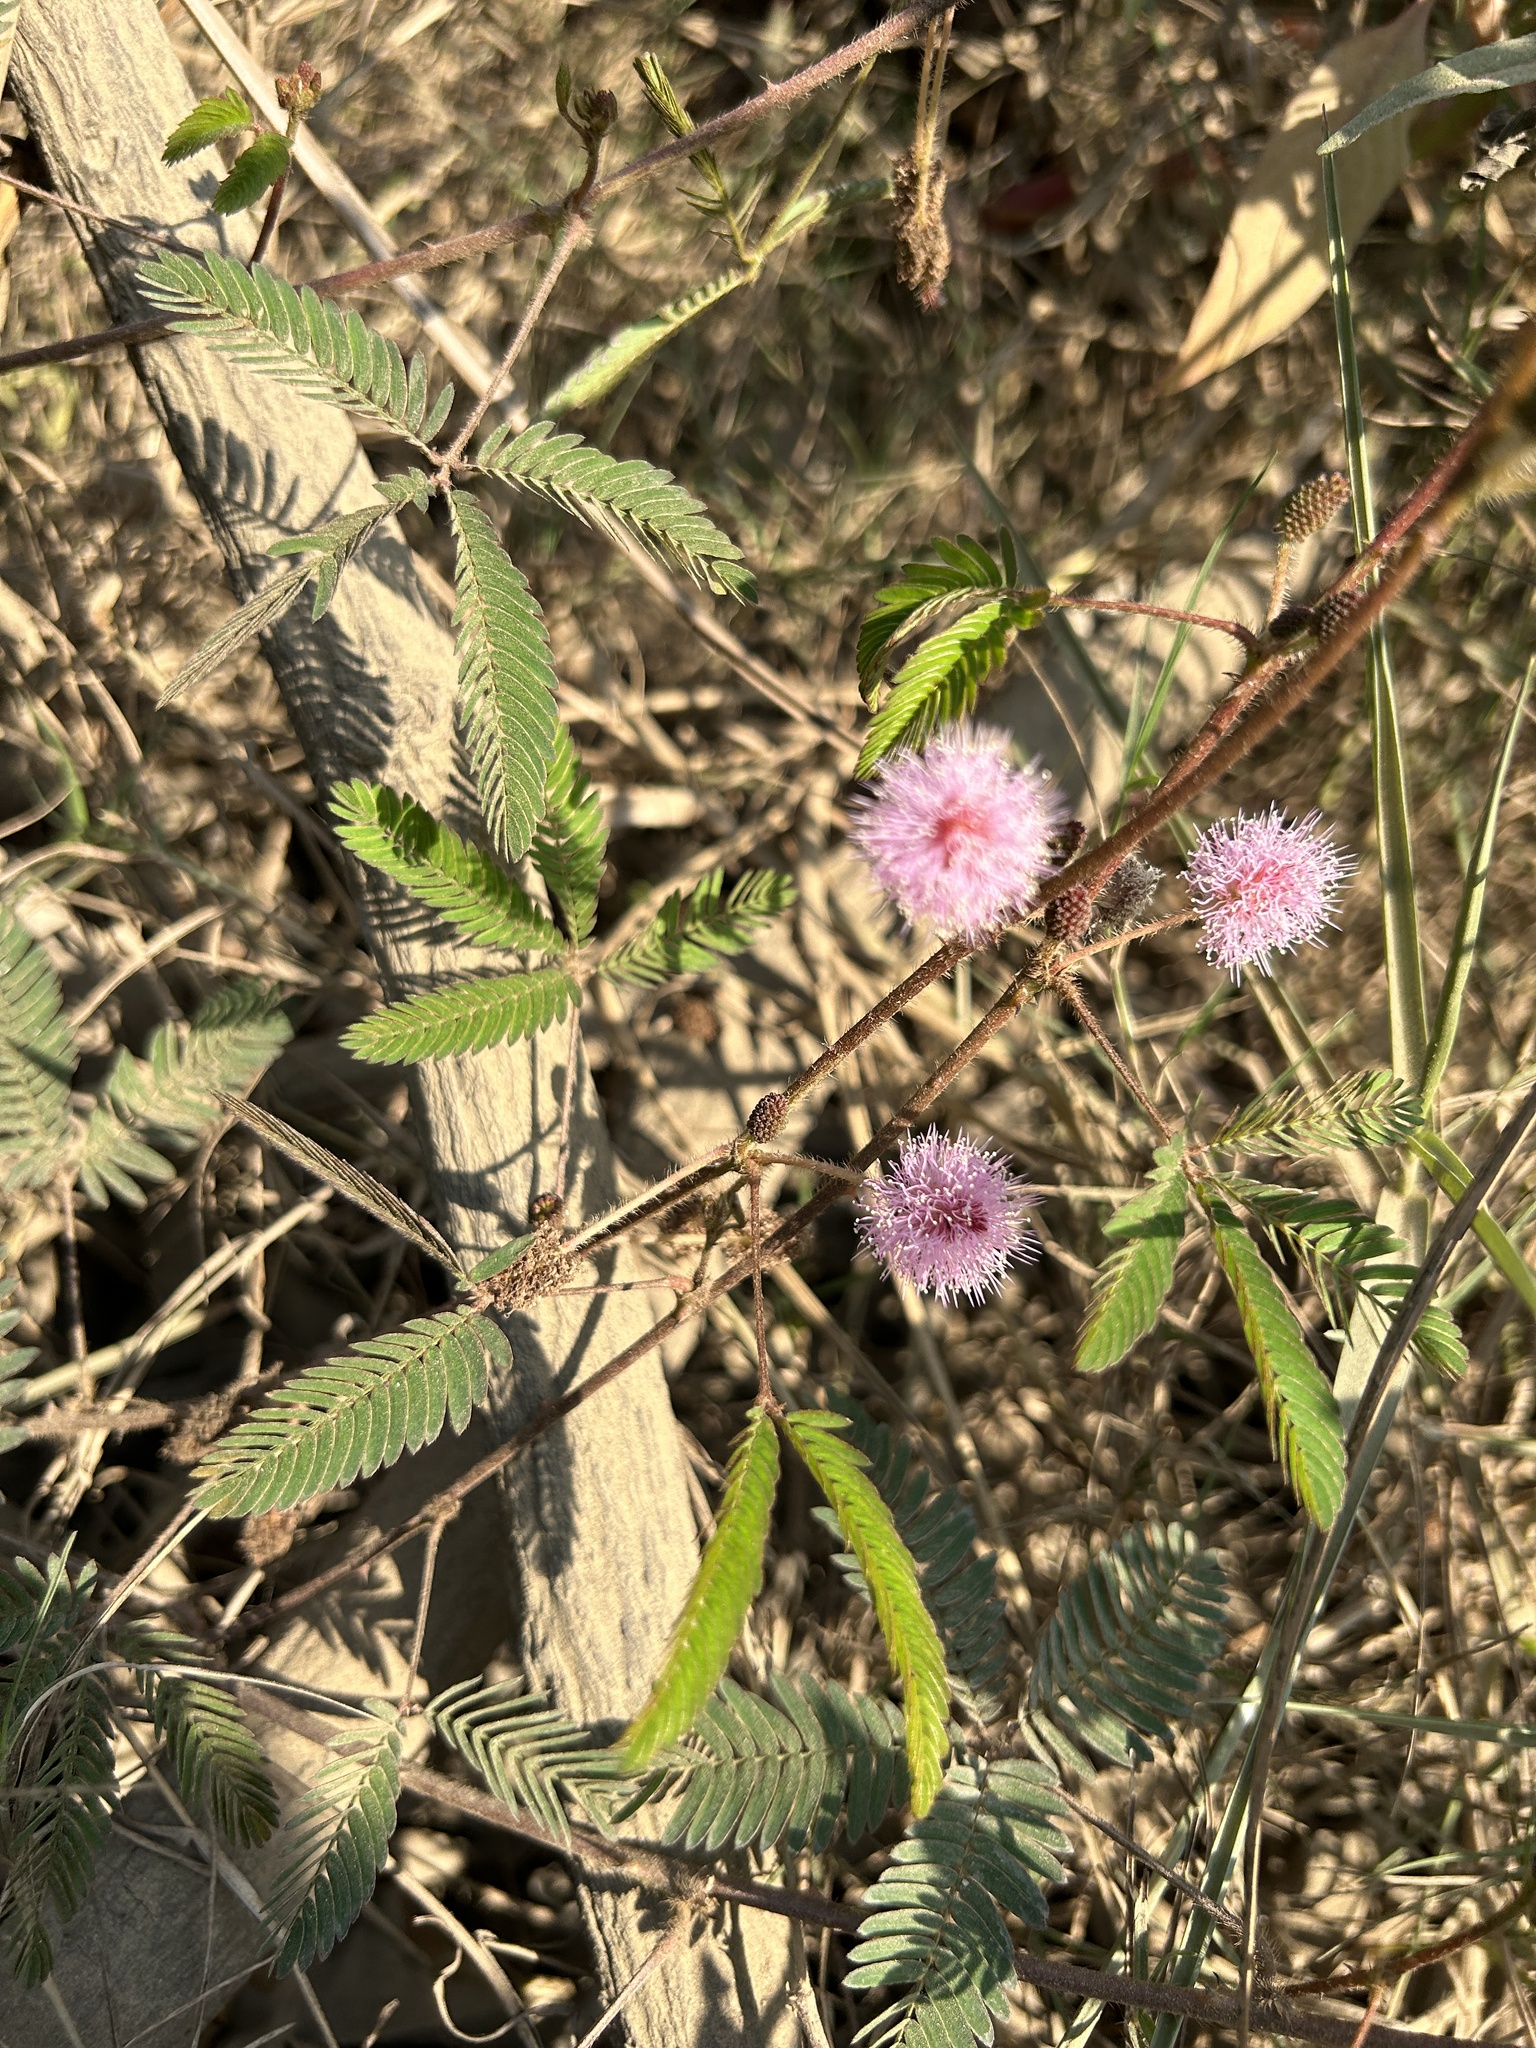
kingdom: Plantae
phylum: Tracheophyta
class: Magnoliopsida
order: Fabales
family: Fabaceae
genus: Mimosa
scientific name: Mimosa pudica
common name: Sensitive plant
